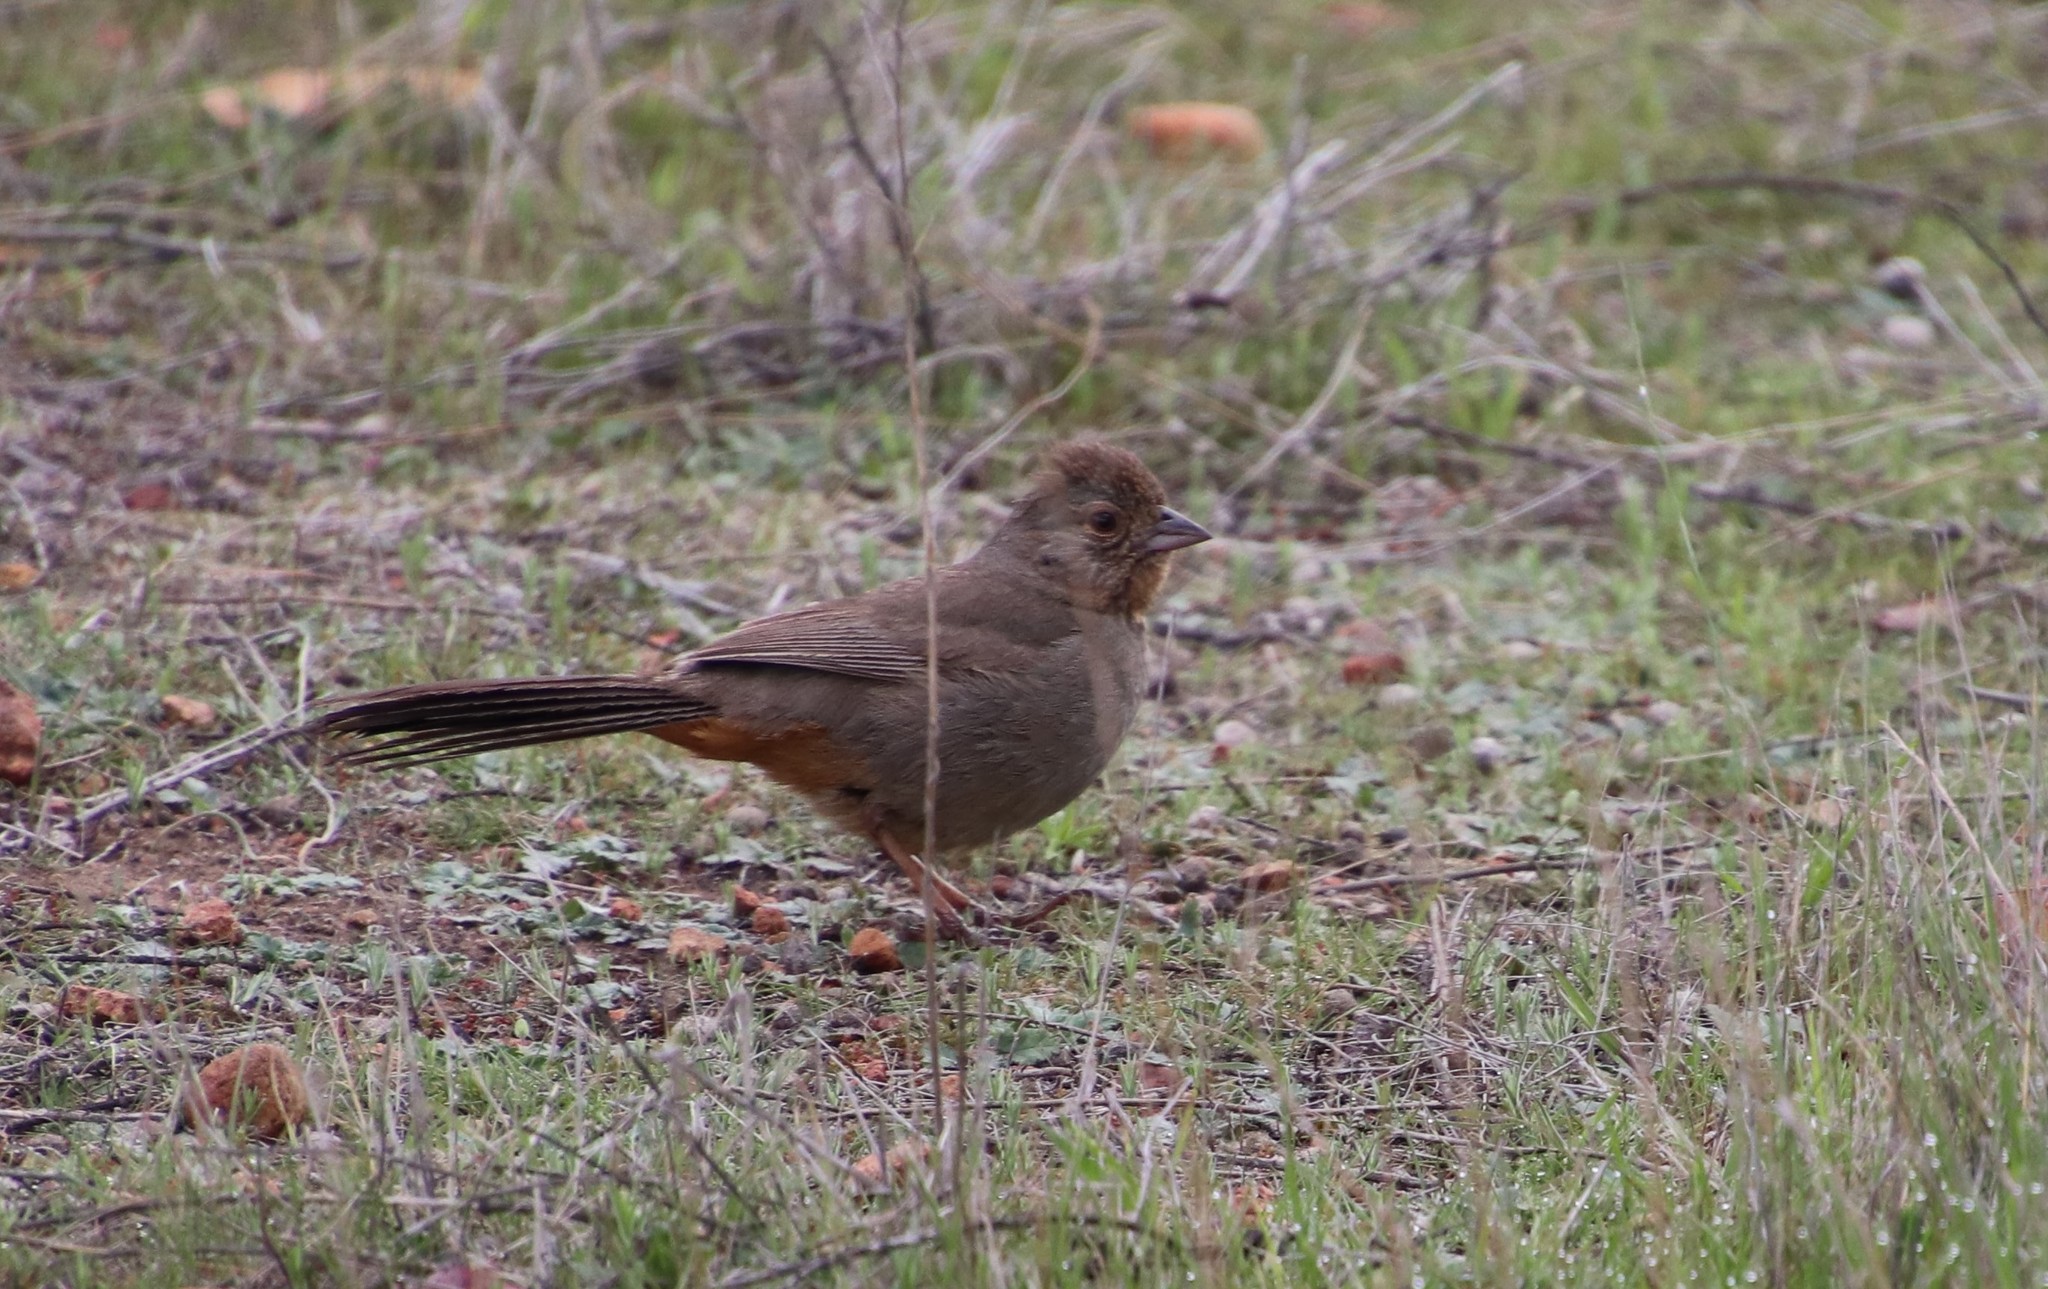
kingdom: Animalia
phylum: Chordata
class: Aves
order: Passeriformes
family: Passerellidae
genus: Melozone
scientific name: Melozone crissalis
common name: California towhee
